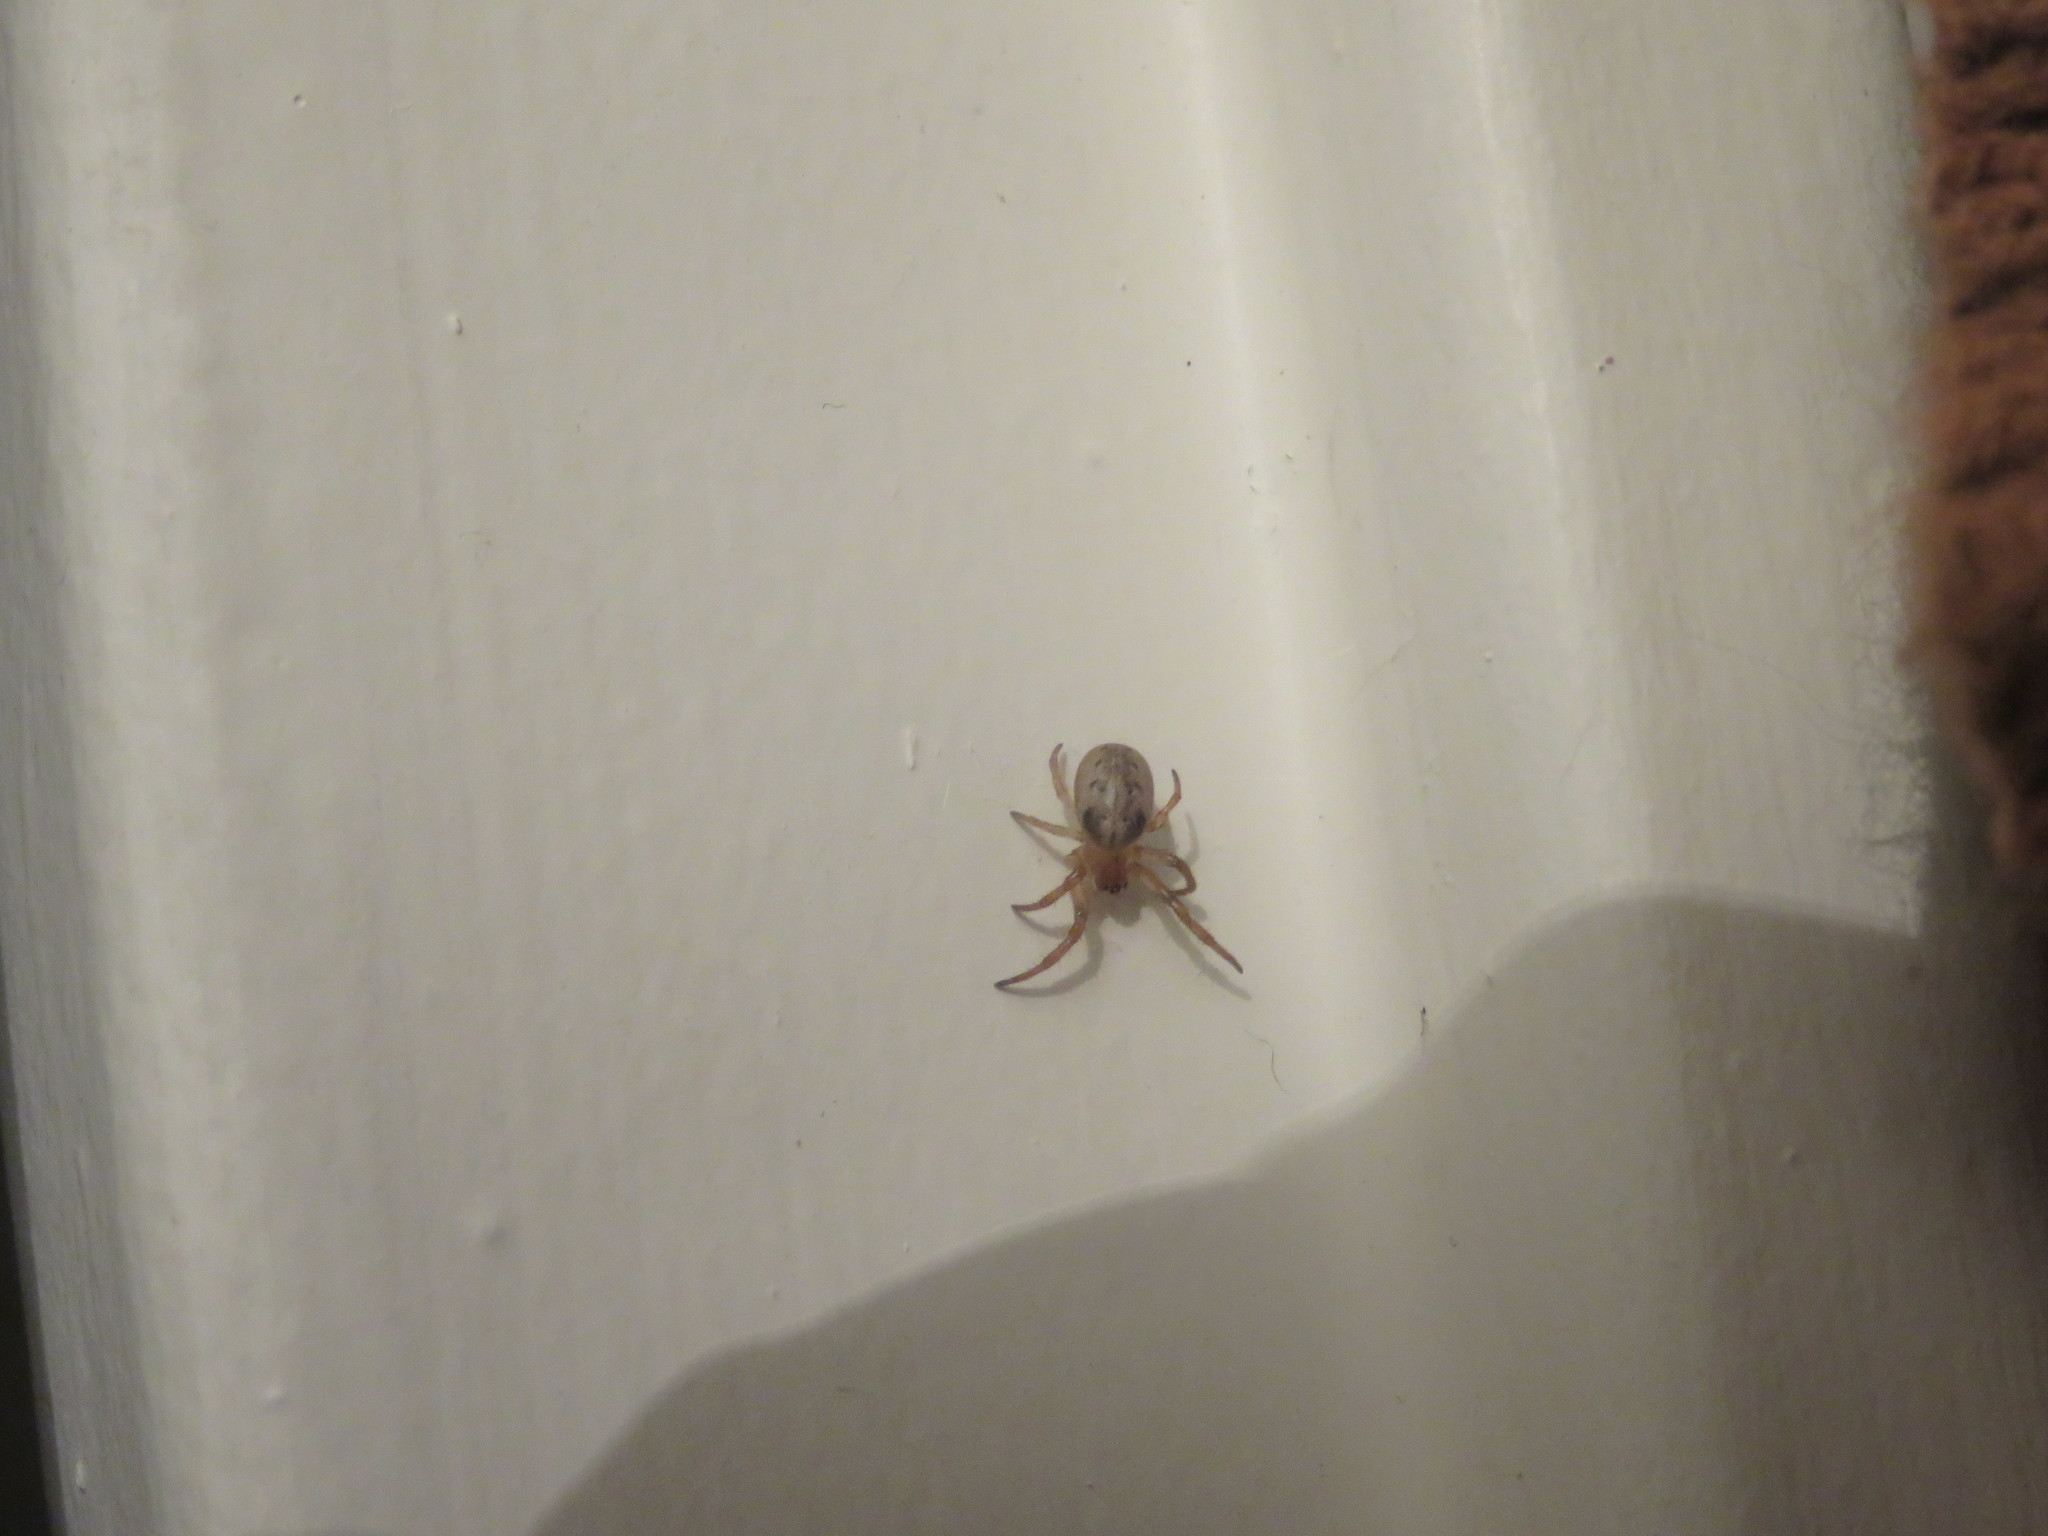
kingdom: Animalia
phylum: Arthropoda
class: Arachnida
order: Araneae
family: Araneidae
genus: Metazygia
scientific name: Metazygia
